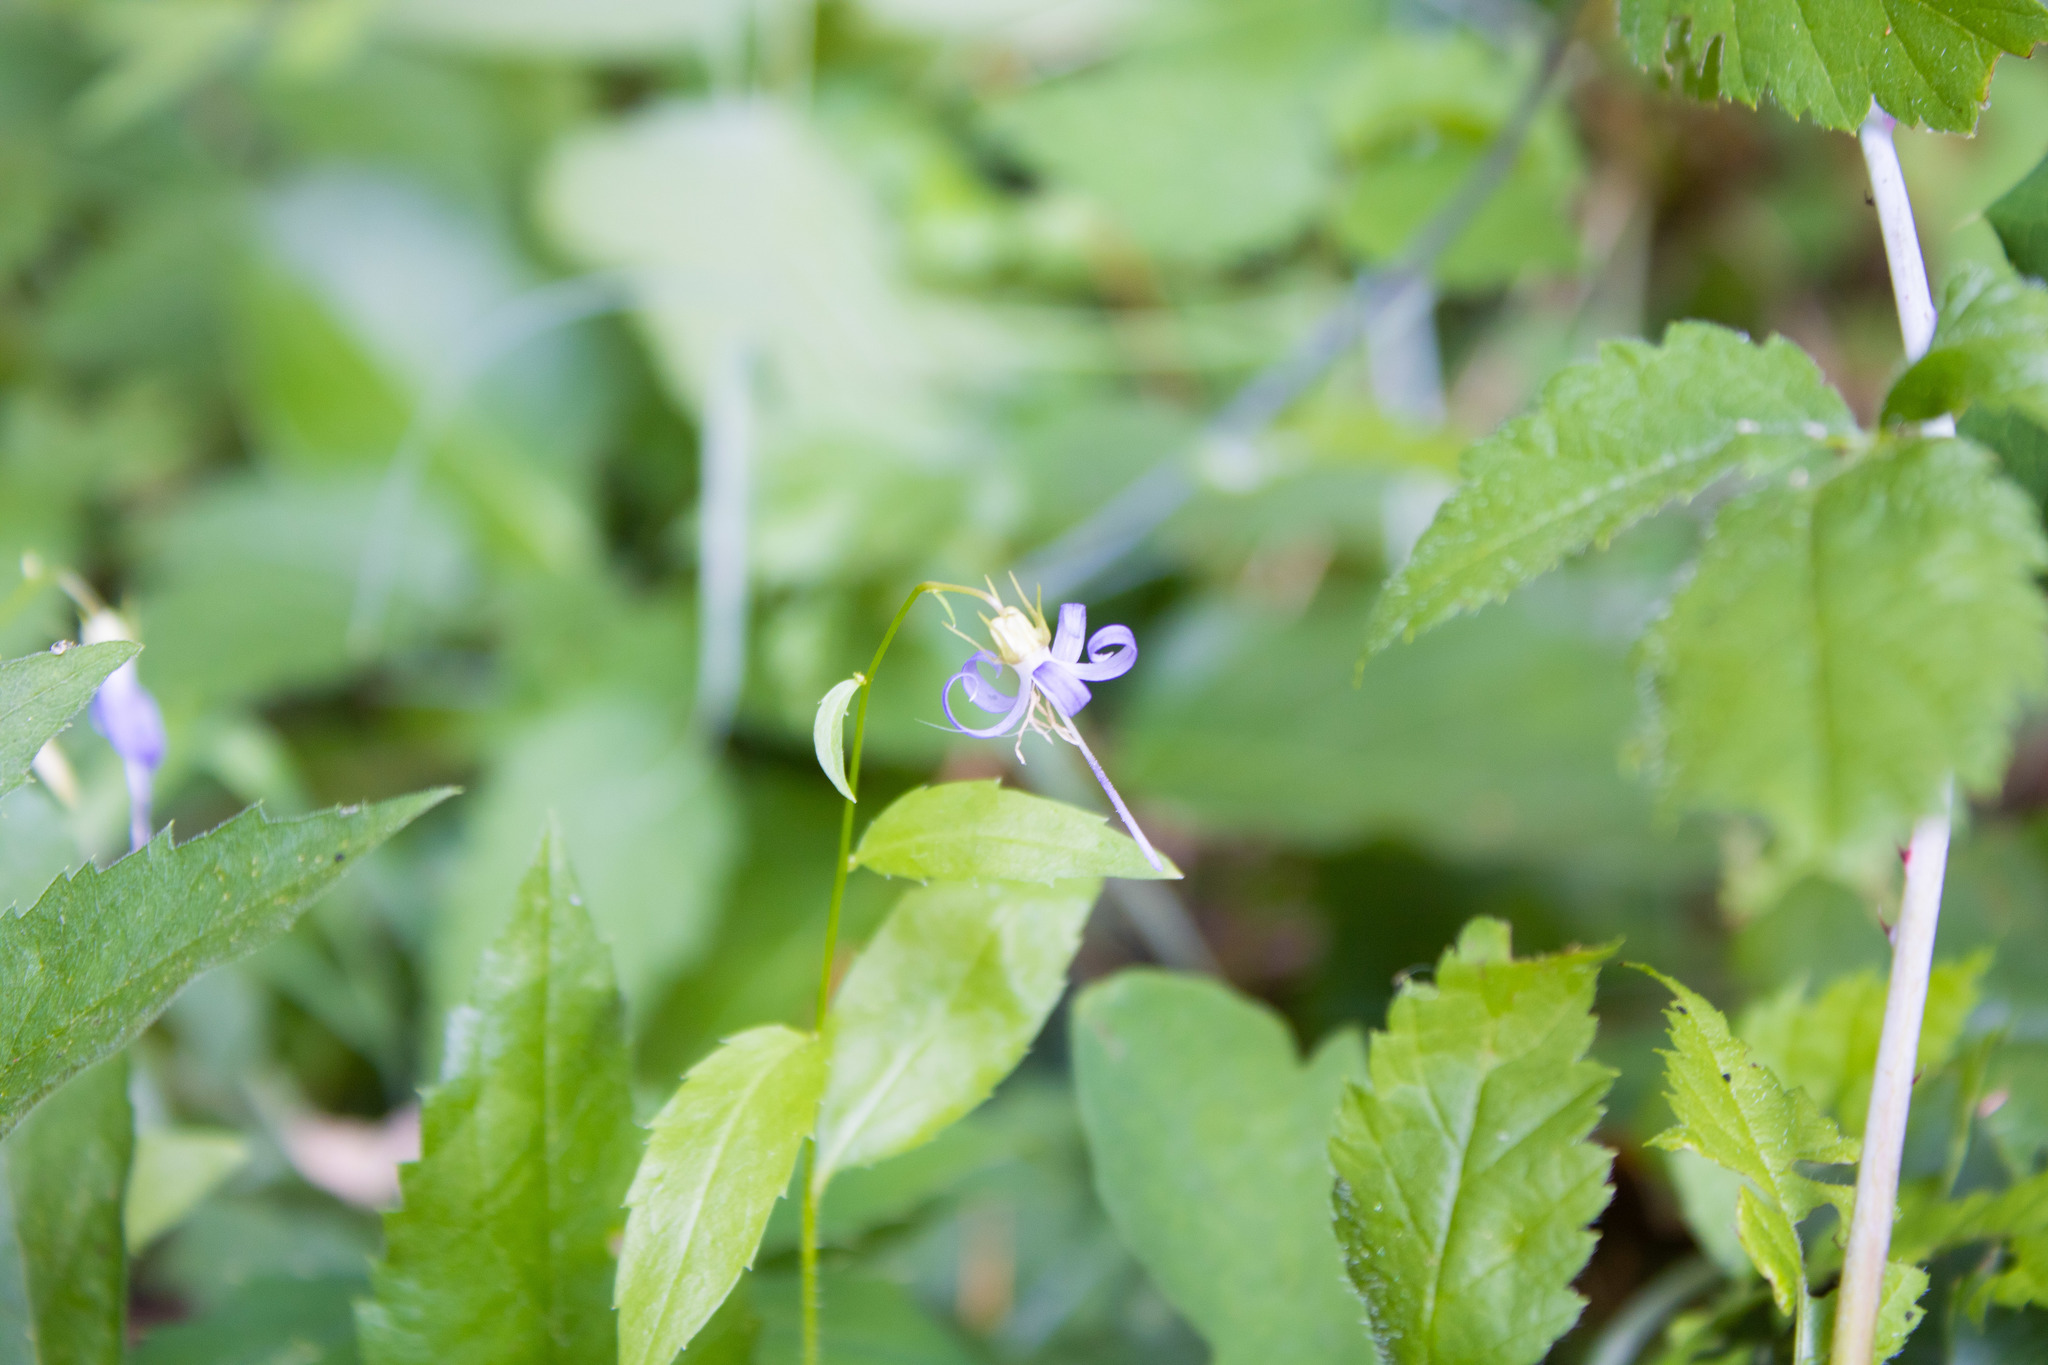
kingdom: Plantae
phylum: Tracheophyta
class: Magnoliopsida
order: Asterales
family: Campanulaceae
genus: Smithiastrum
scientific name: Smithiastrum prenanthoides
